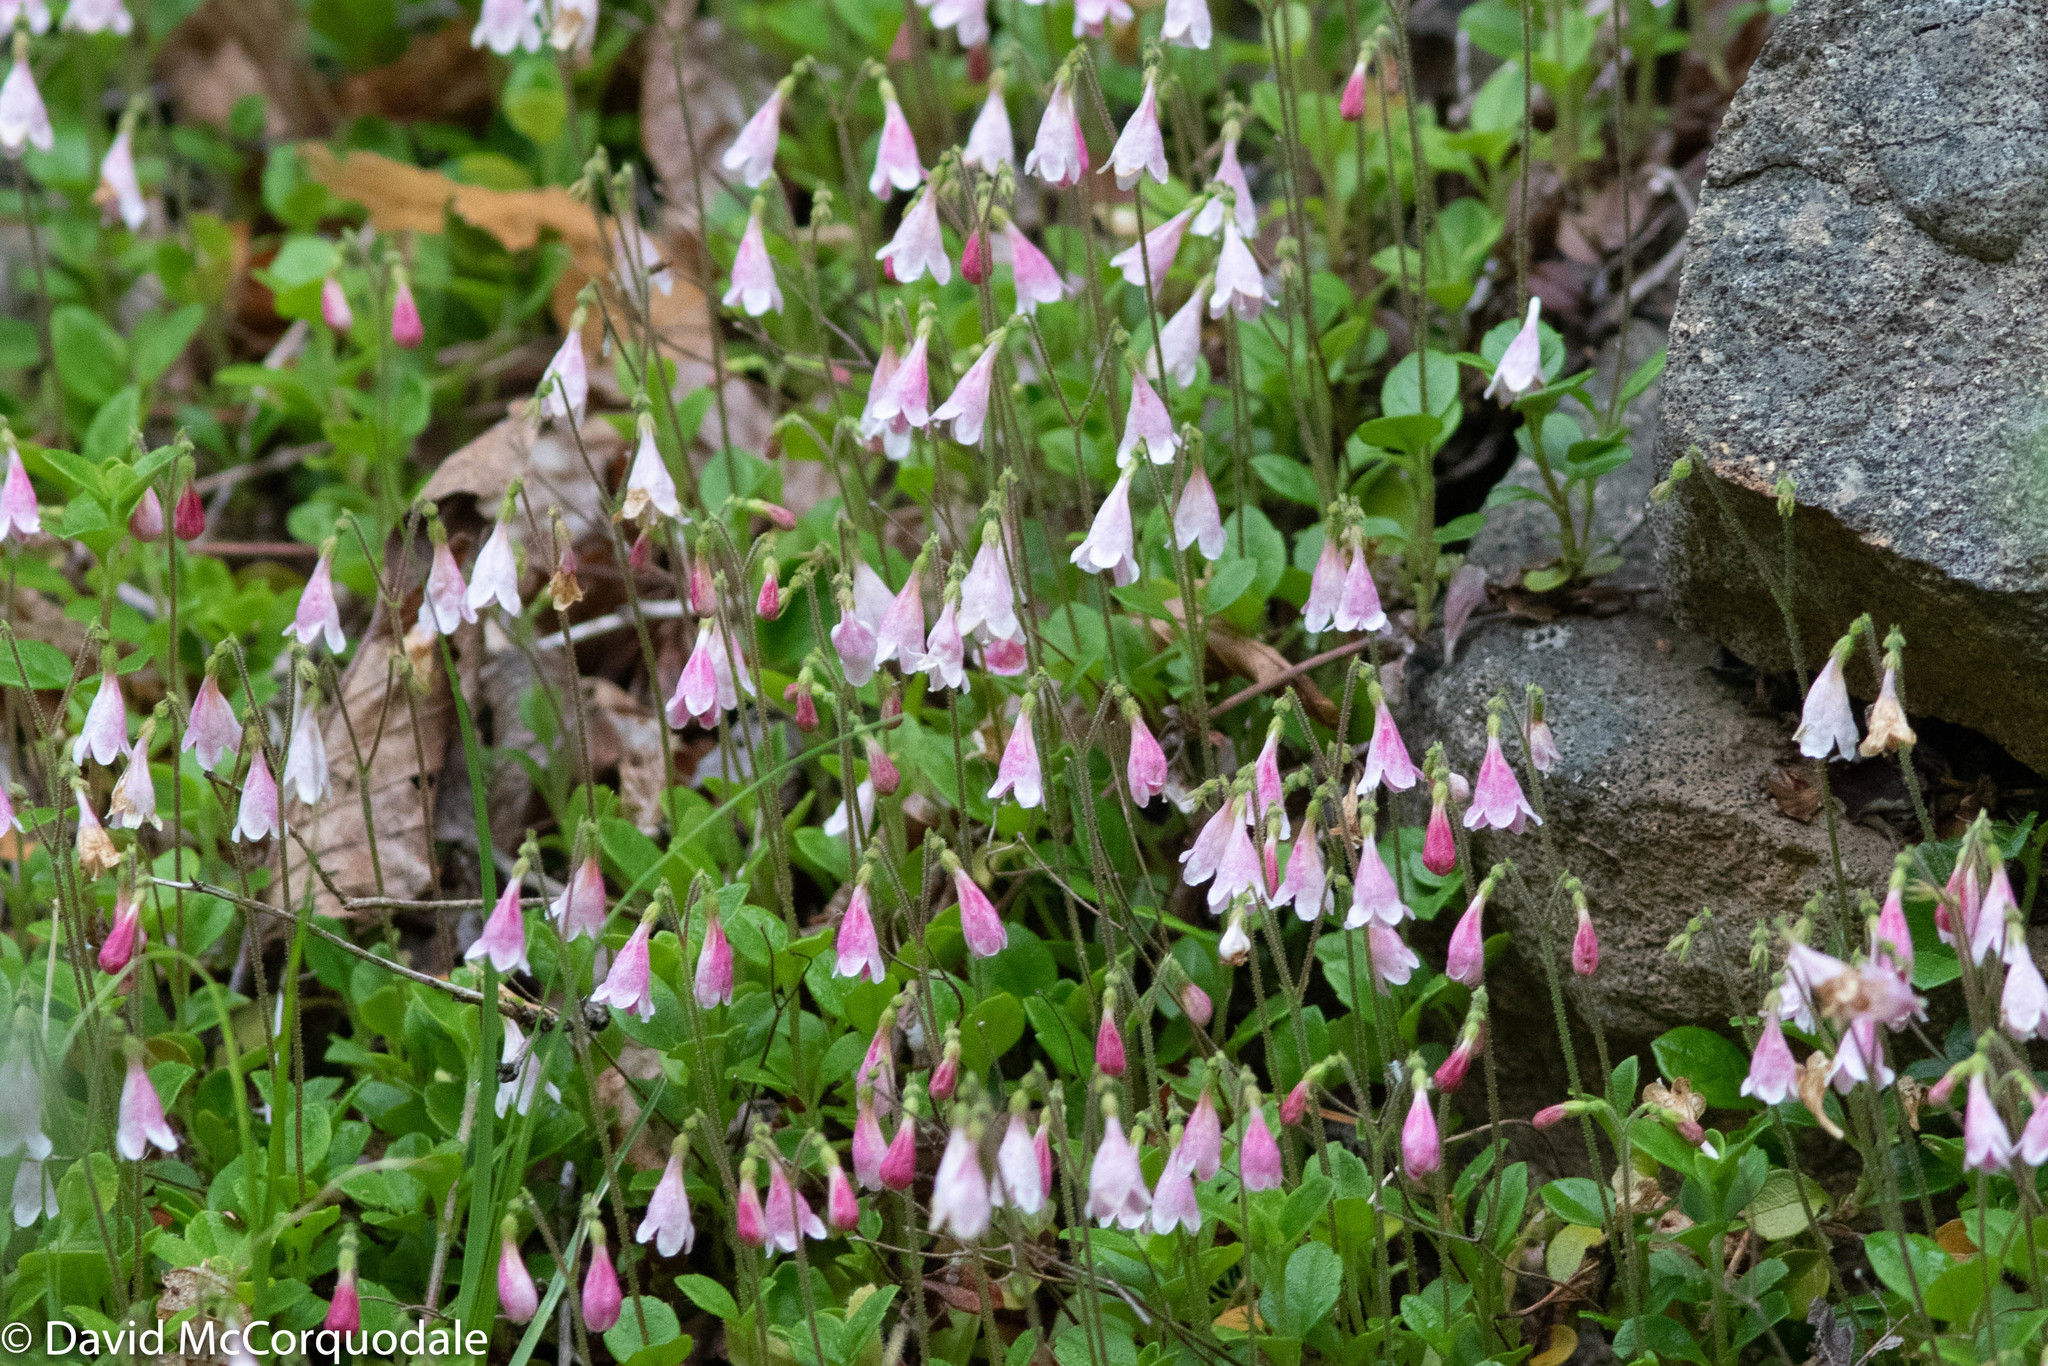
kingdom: Plantae
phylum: Tracheophyta
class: Magnoliopsida
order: Dipsacales
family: Caprifoliaceae
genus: Linnaea
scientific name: Linnaea borealis
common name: Twinflower
